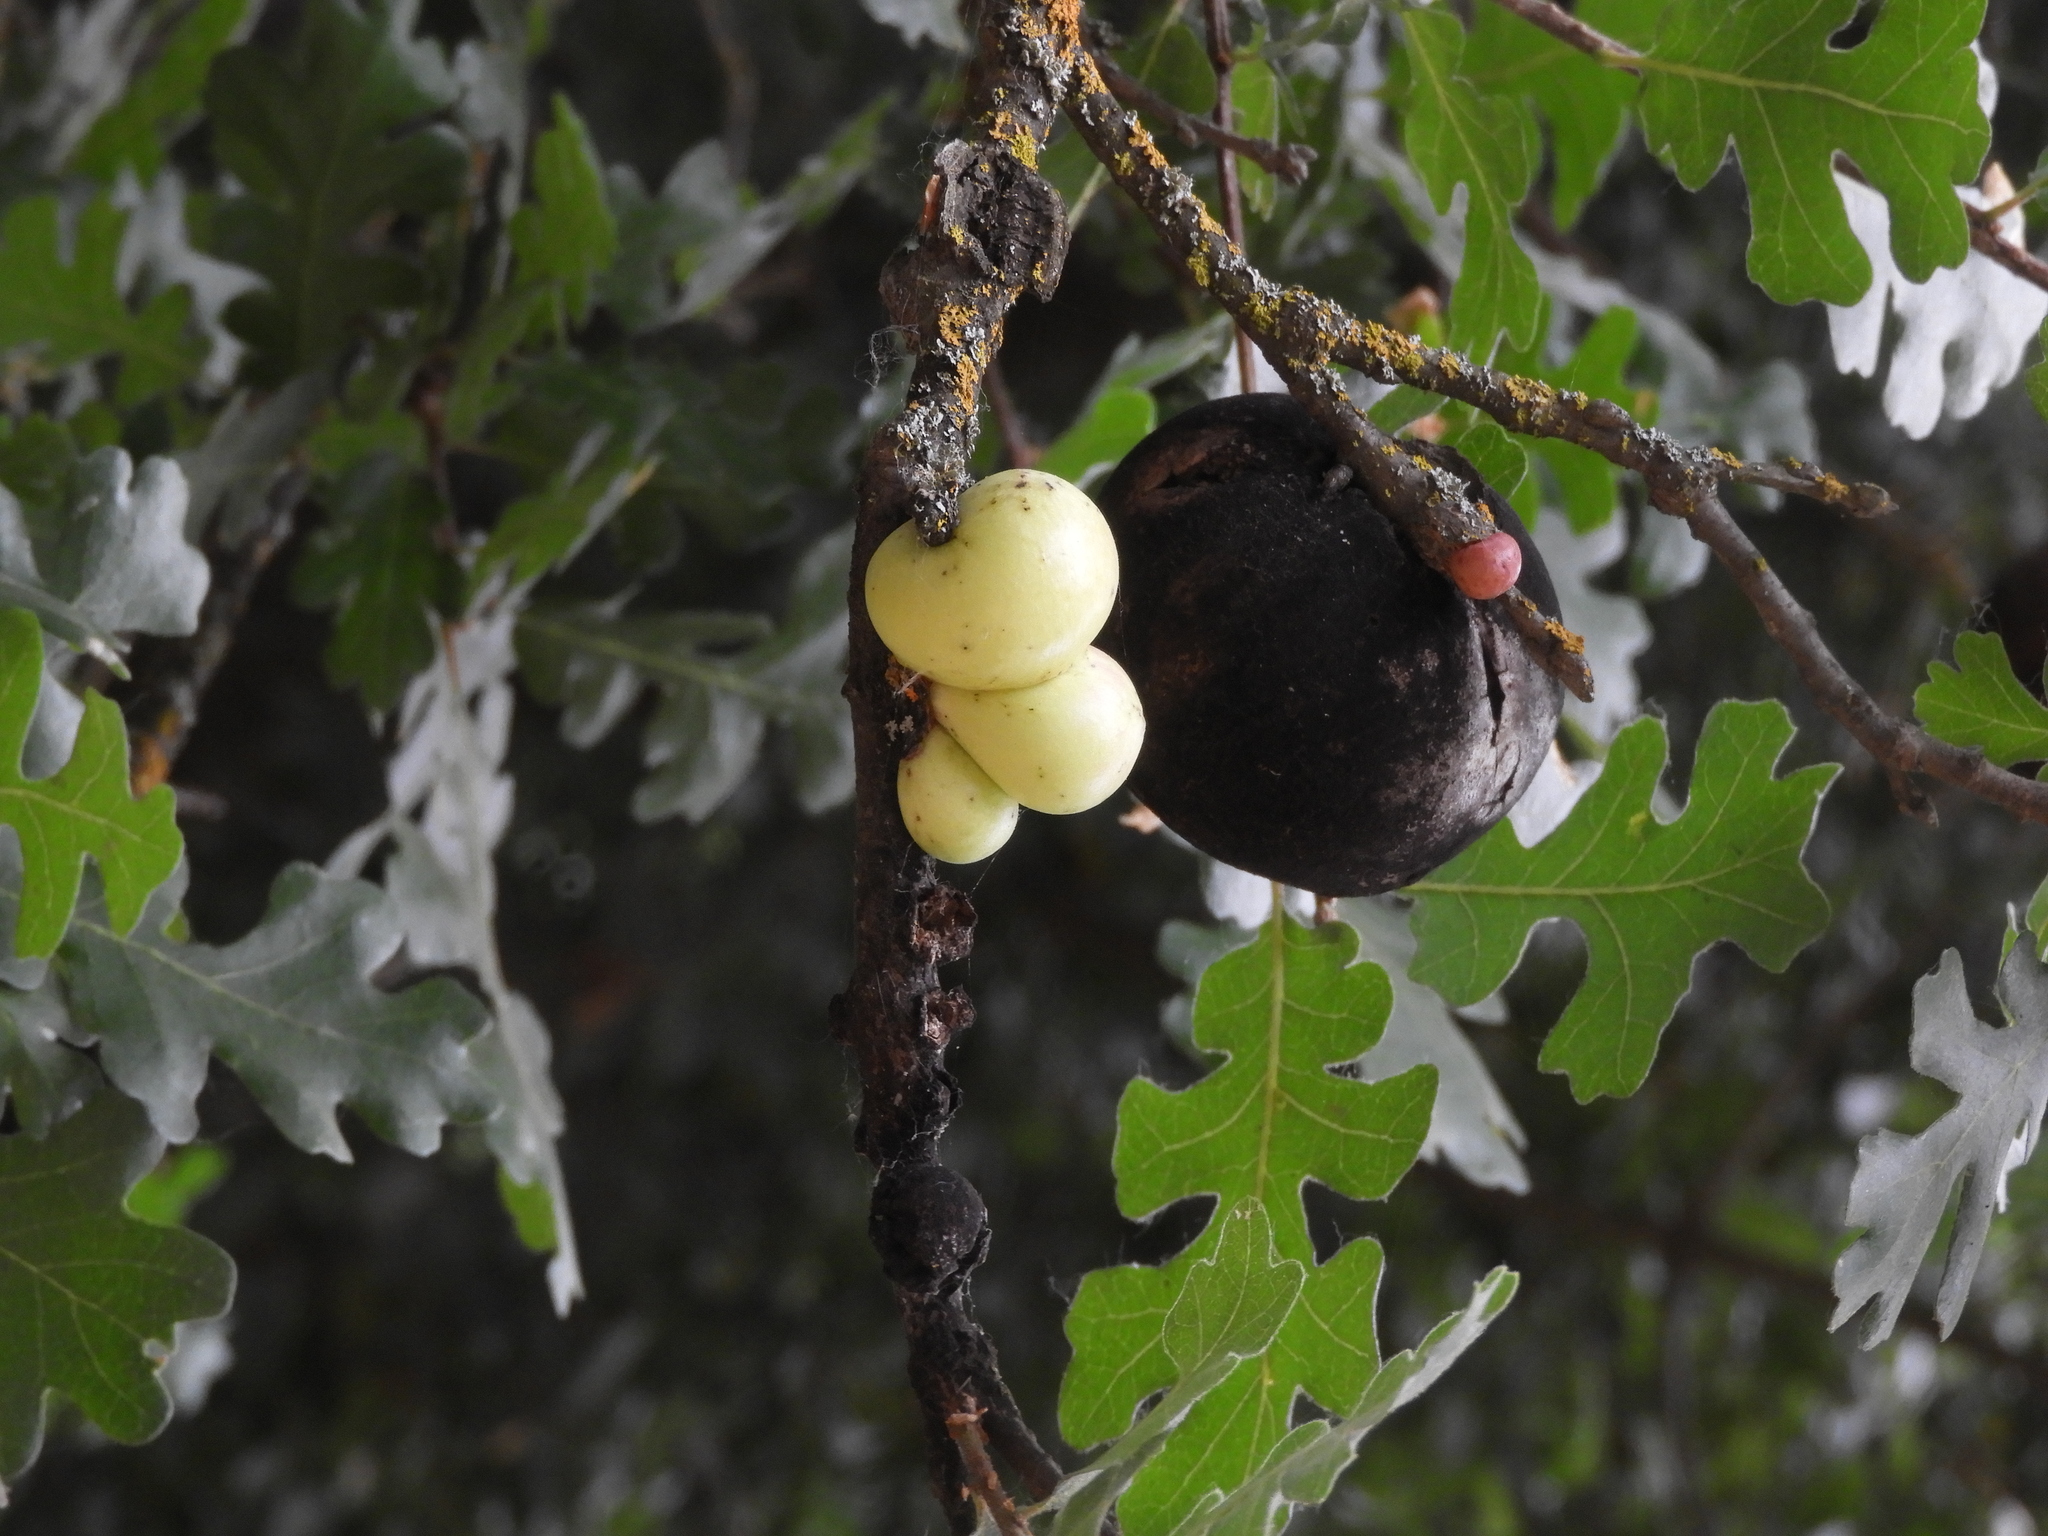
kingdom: Animalia
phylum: Arthropoda
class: Insecta
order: Hymenoptera
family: Cynipidae
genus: Andricus
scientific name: Andricus quercuscalifornicus
